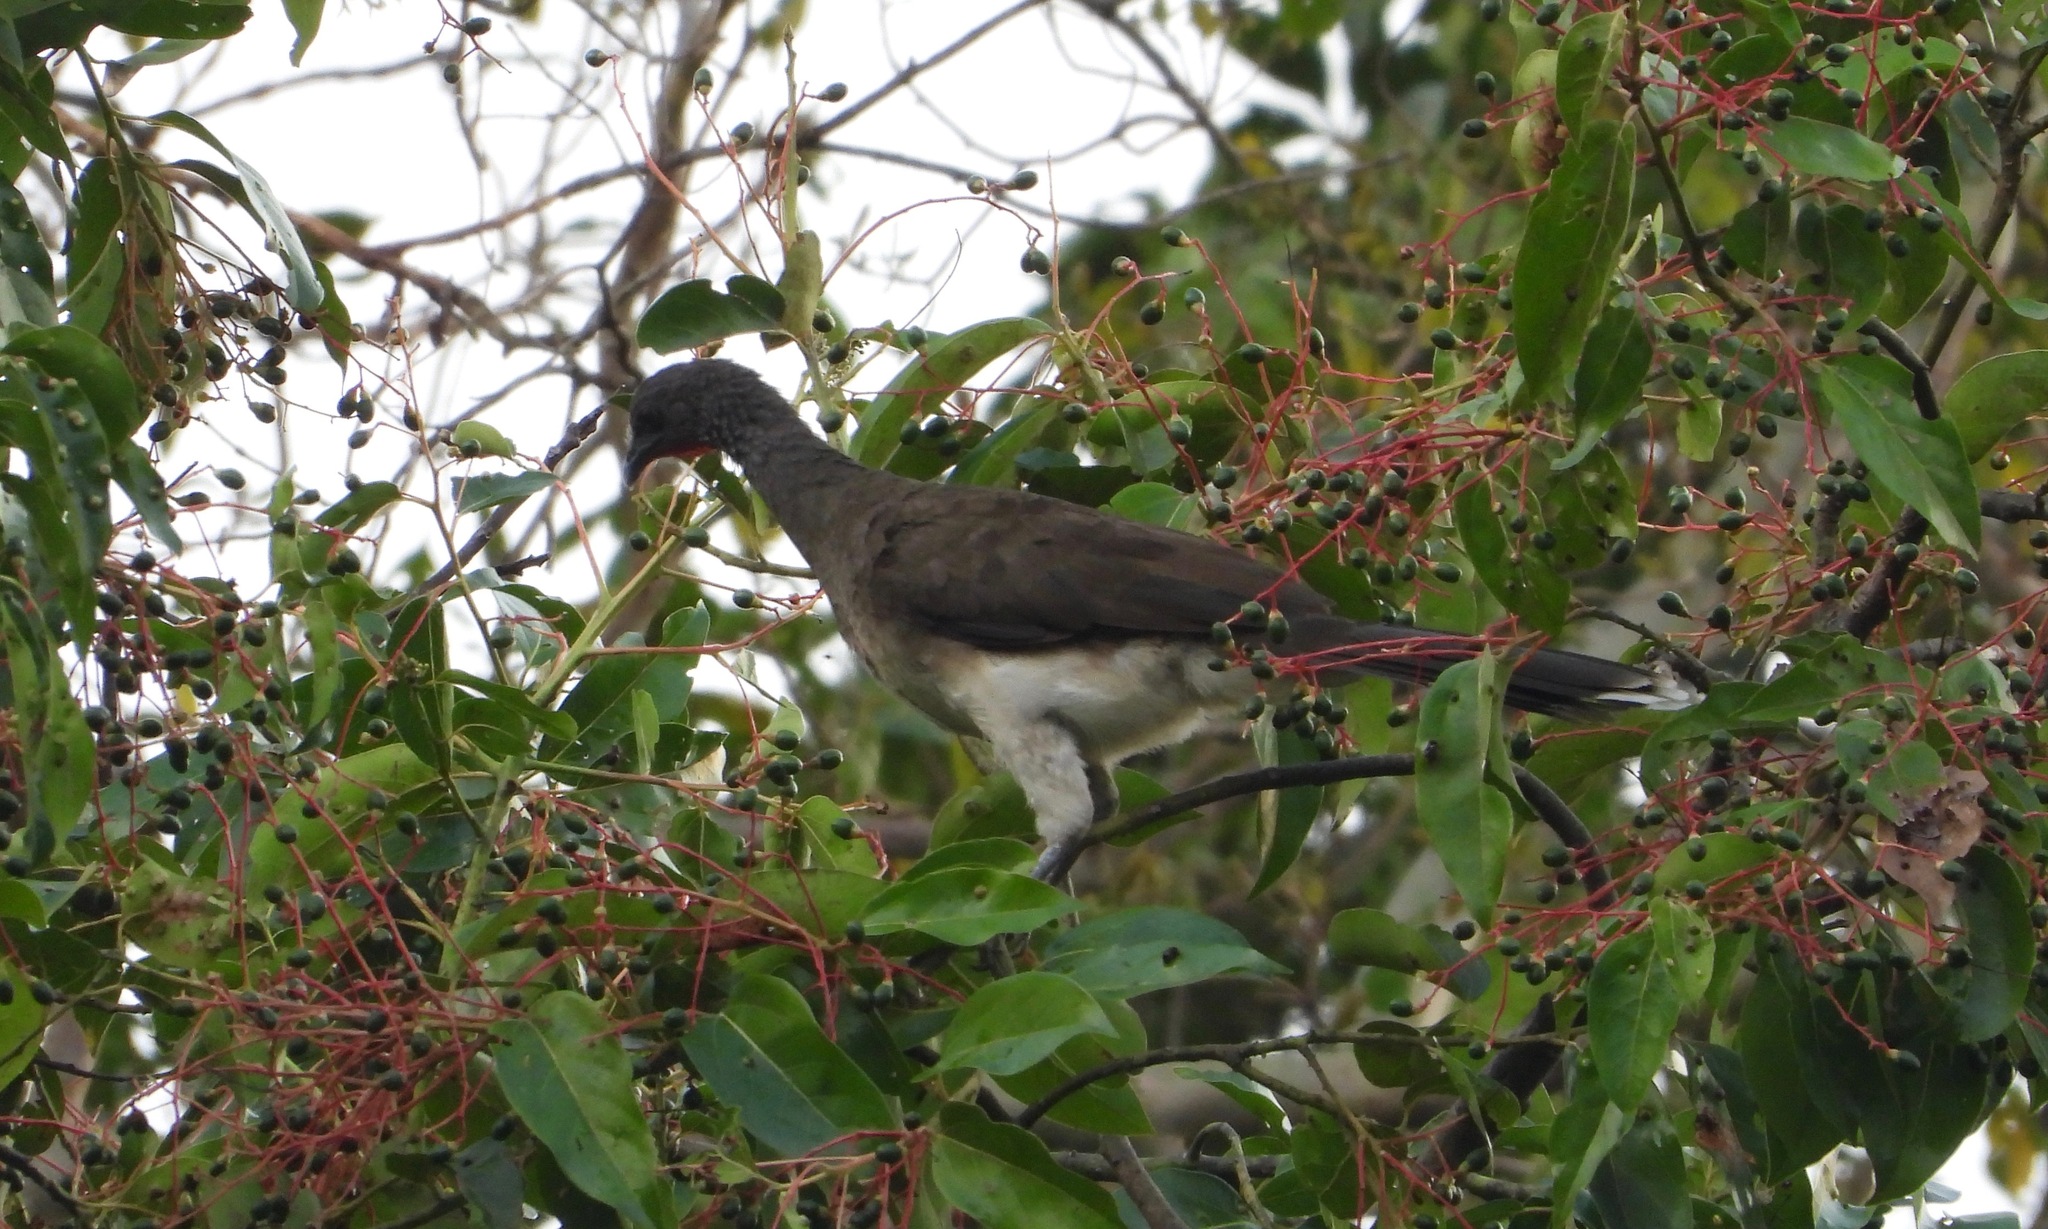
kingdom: Animalia
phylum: Chordata
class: Aves
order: Galliformes
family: Cracidae
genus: Ortalis
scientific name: Ortalis leucogastra
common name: White-bellied chachalaca
